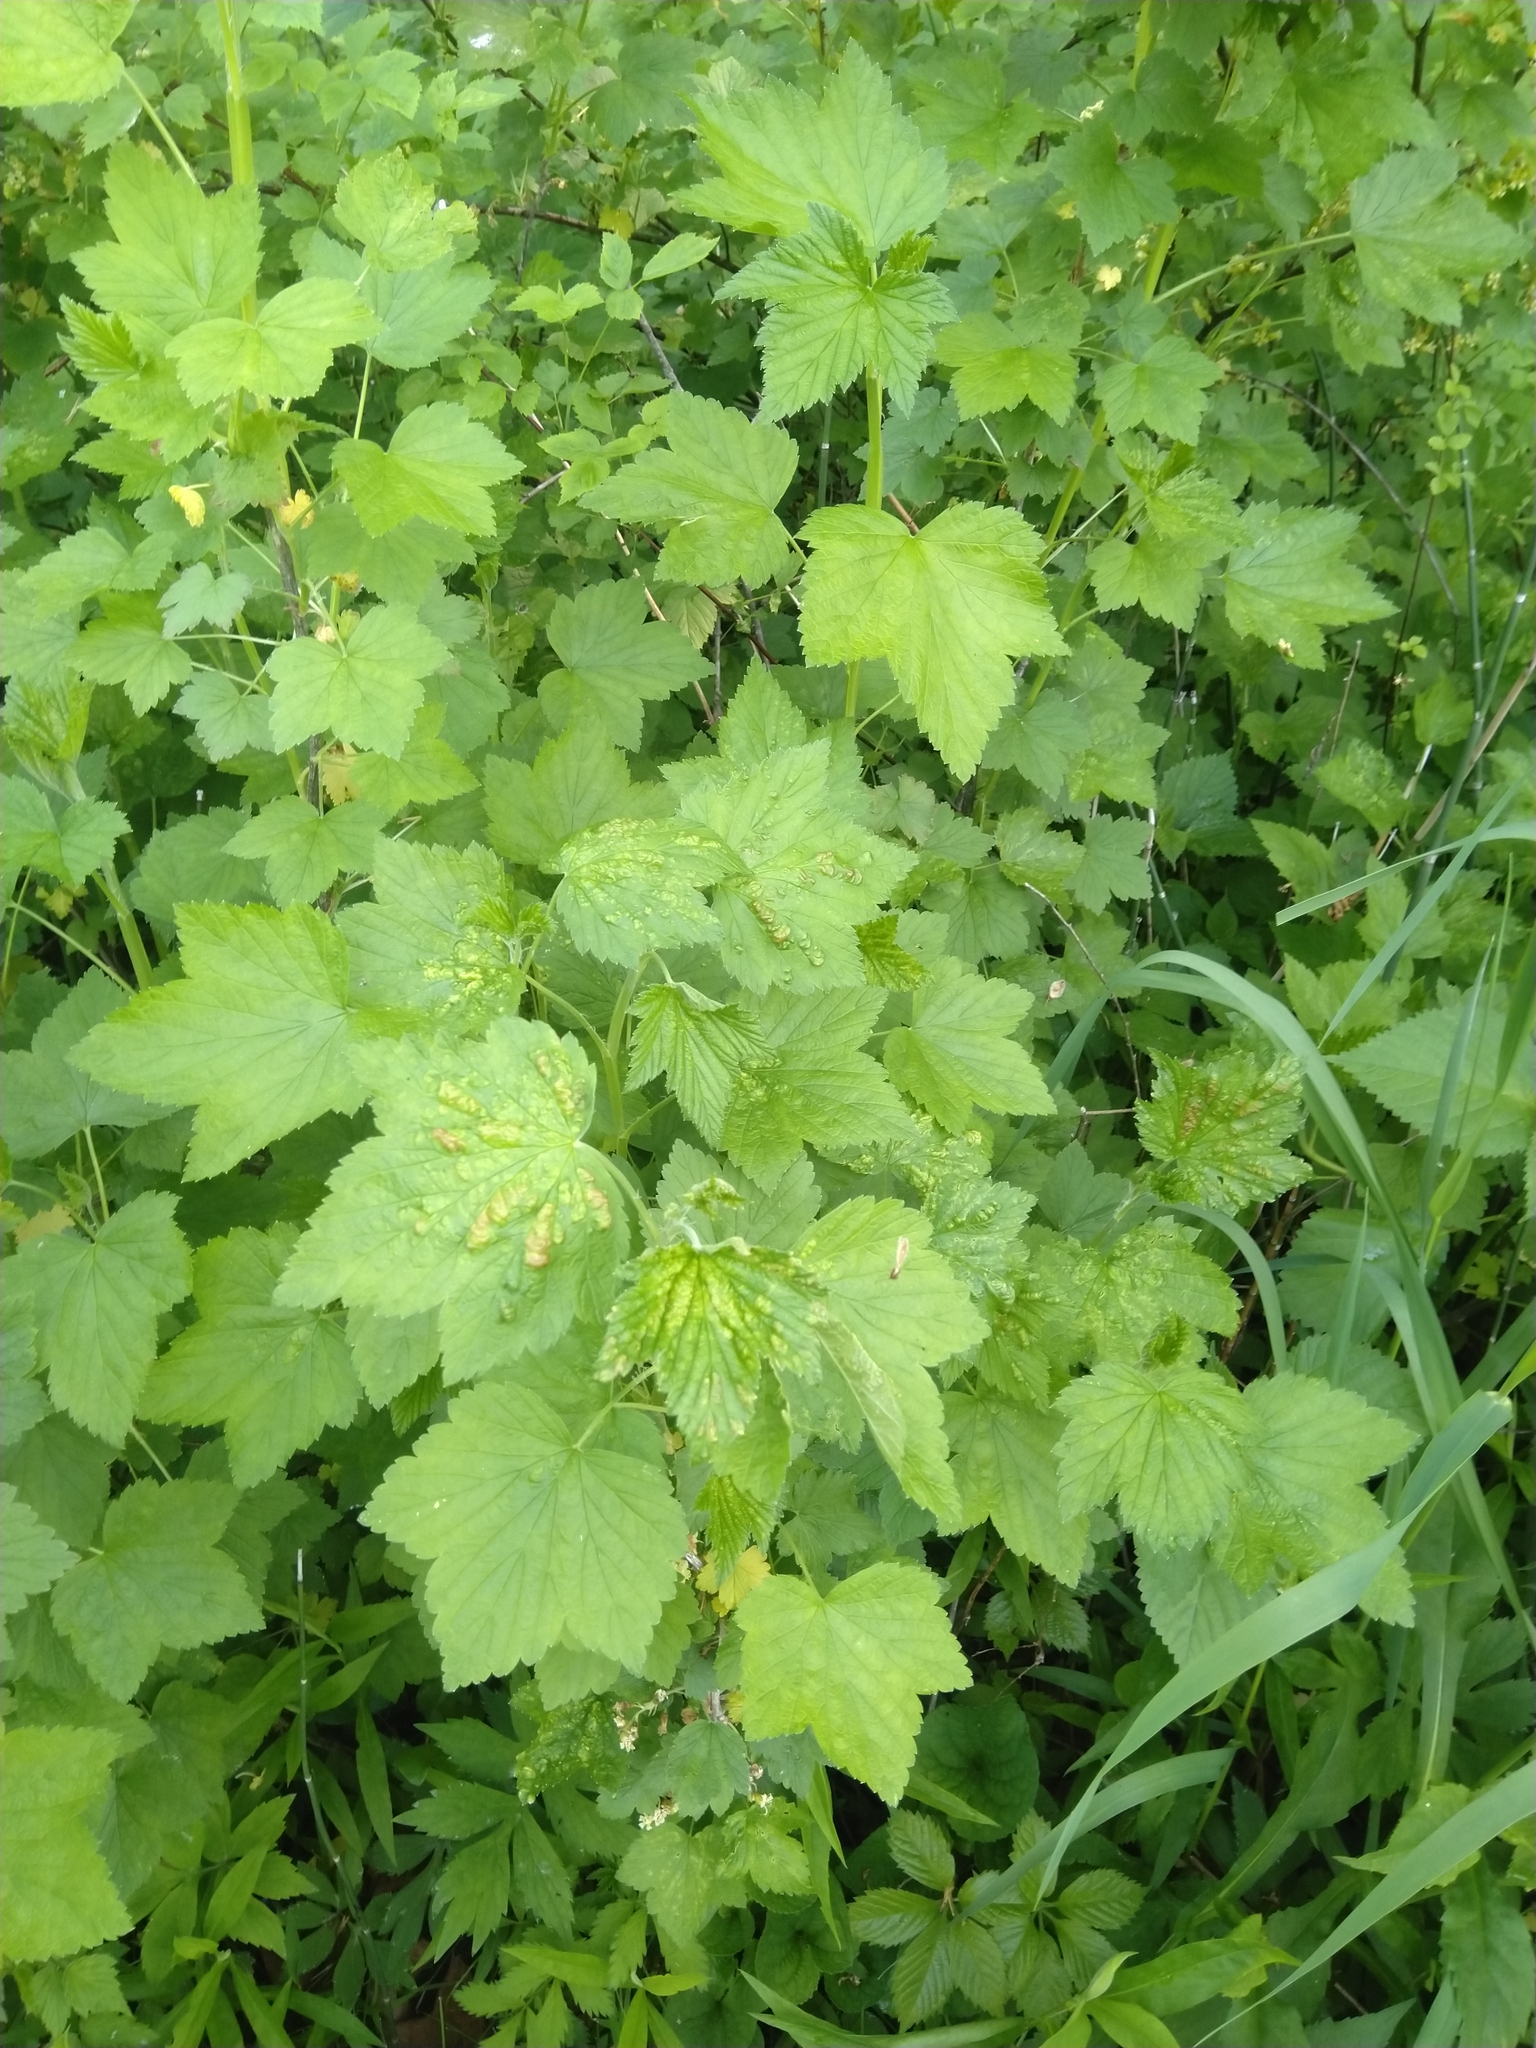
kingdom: Plantae
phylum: Tracheophyta
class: Magnoliopsida
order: Saxifragales
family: Grossulariaceae
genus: Ribes
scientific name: Ribes americanum
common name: American black currant
